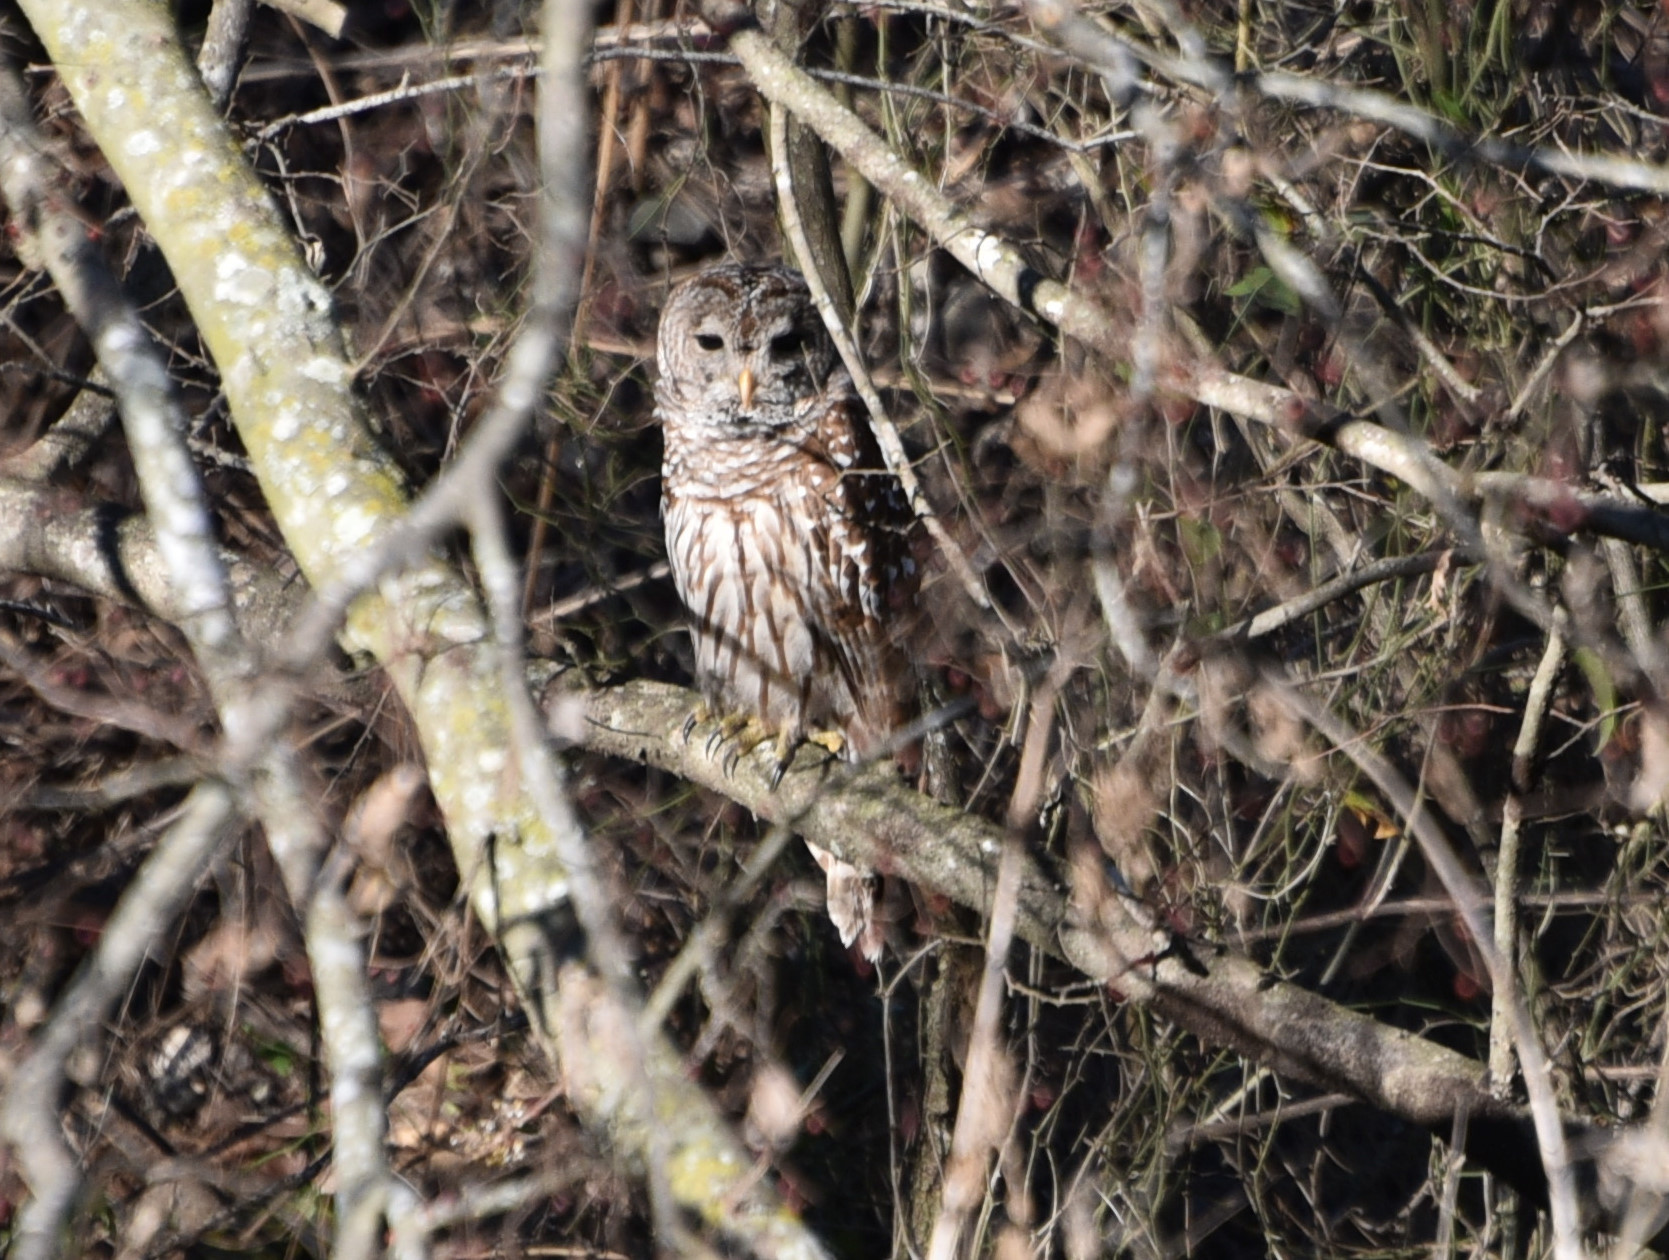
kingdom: Animalia
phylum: Chordata
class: Aves
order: Strigiformes
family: Strigidae
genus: Strix
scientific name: Strix varia
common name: Barred owl
